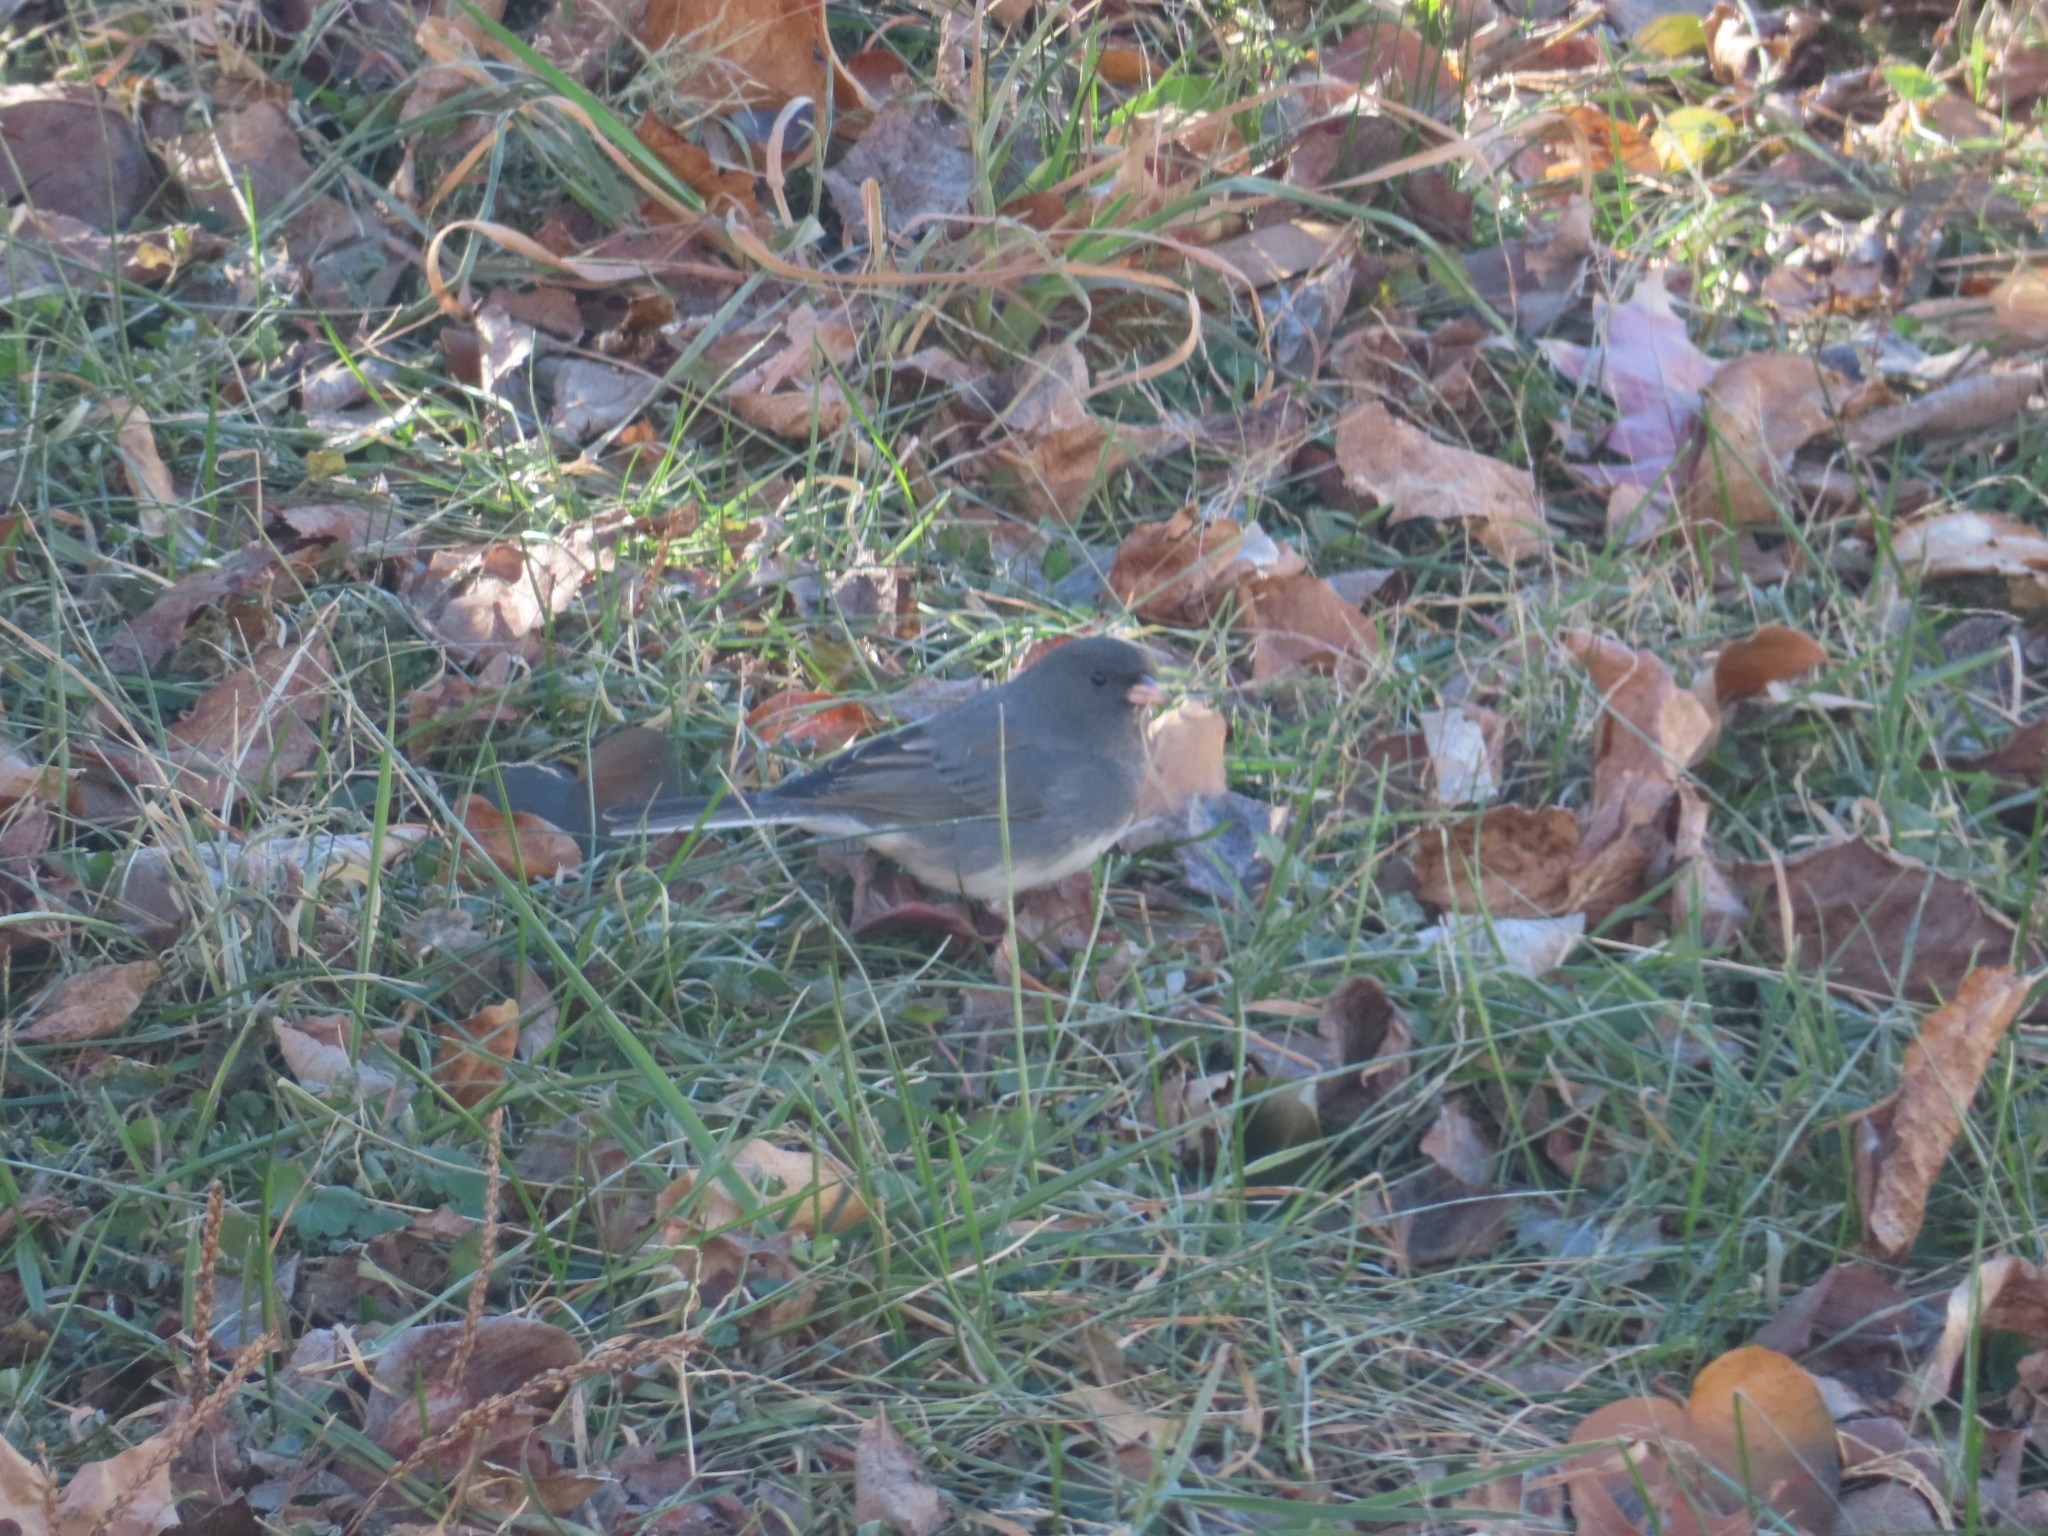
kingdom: Animalia
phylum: Chordata
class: Aves
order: Passeriformes
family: Passerellidae
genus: Junco
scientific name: Junco hyemalis
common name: Dark-eyed junco
